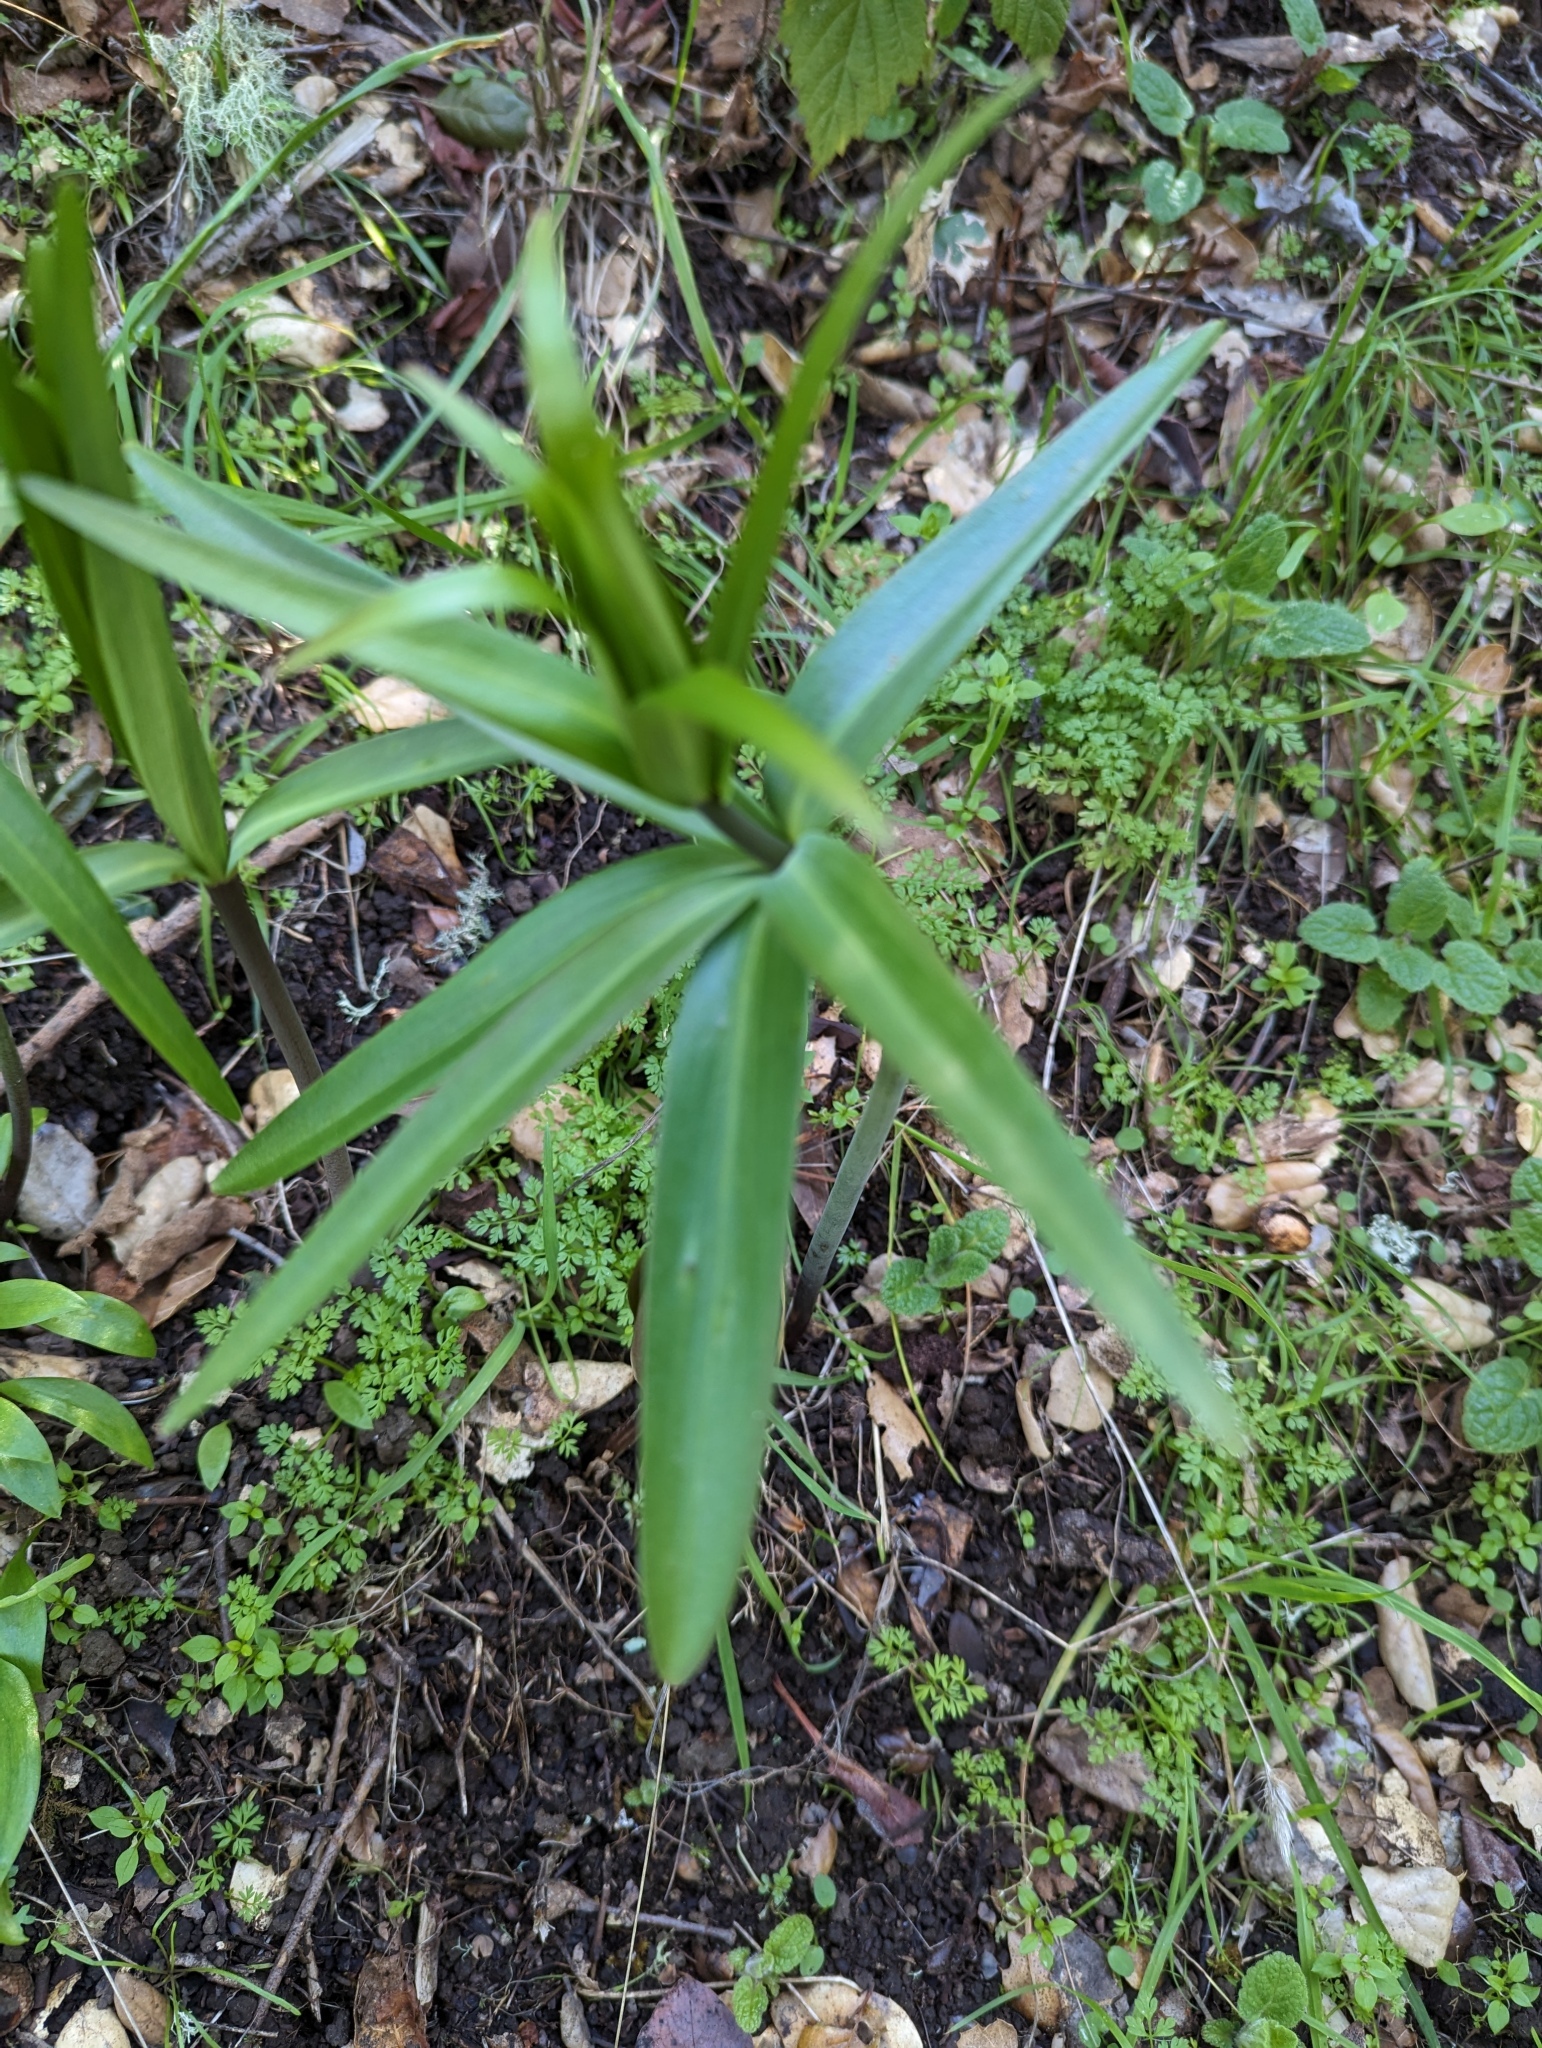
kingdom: Plantae
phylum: Tracheophyta
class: Liliopsida
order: Liliales
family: Liliaceae
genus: Fritillaria
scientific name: Fritillaria affinis
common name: Ojai fritillary
